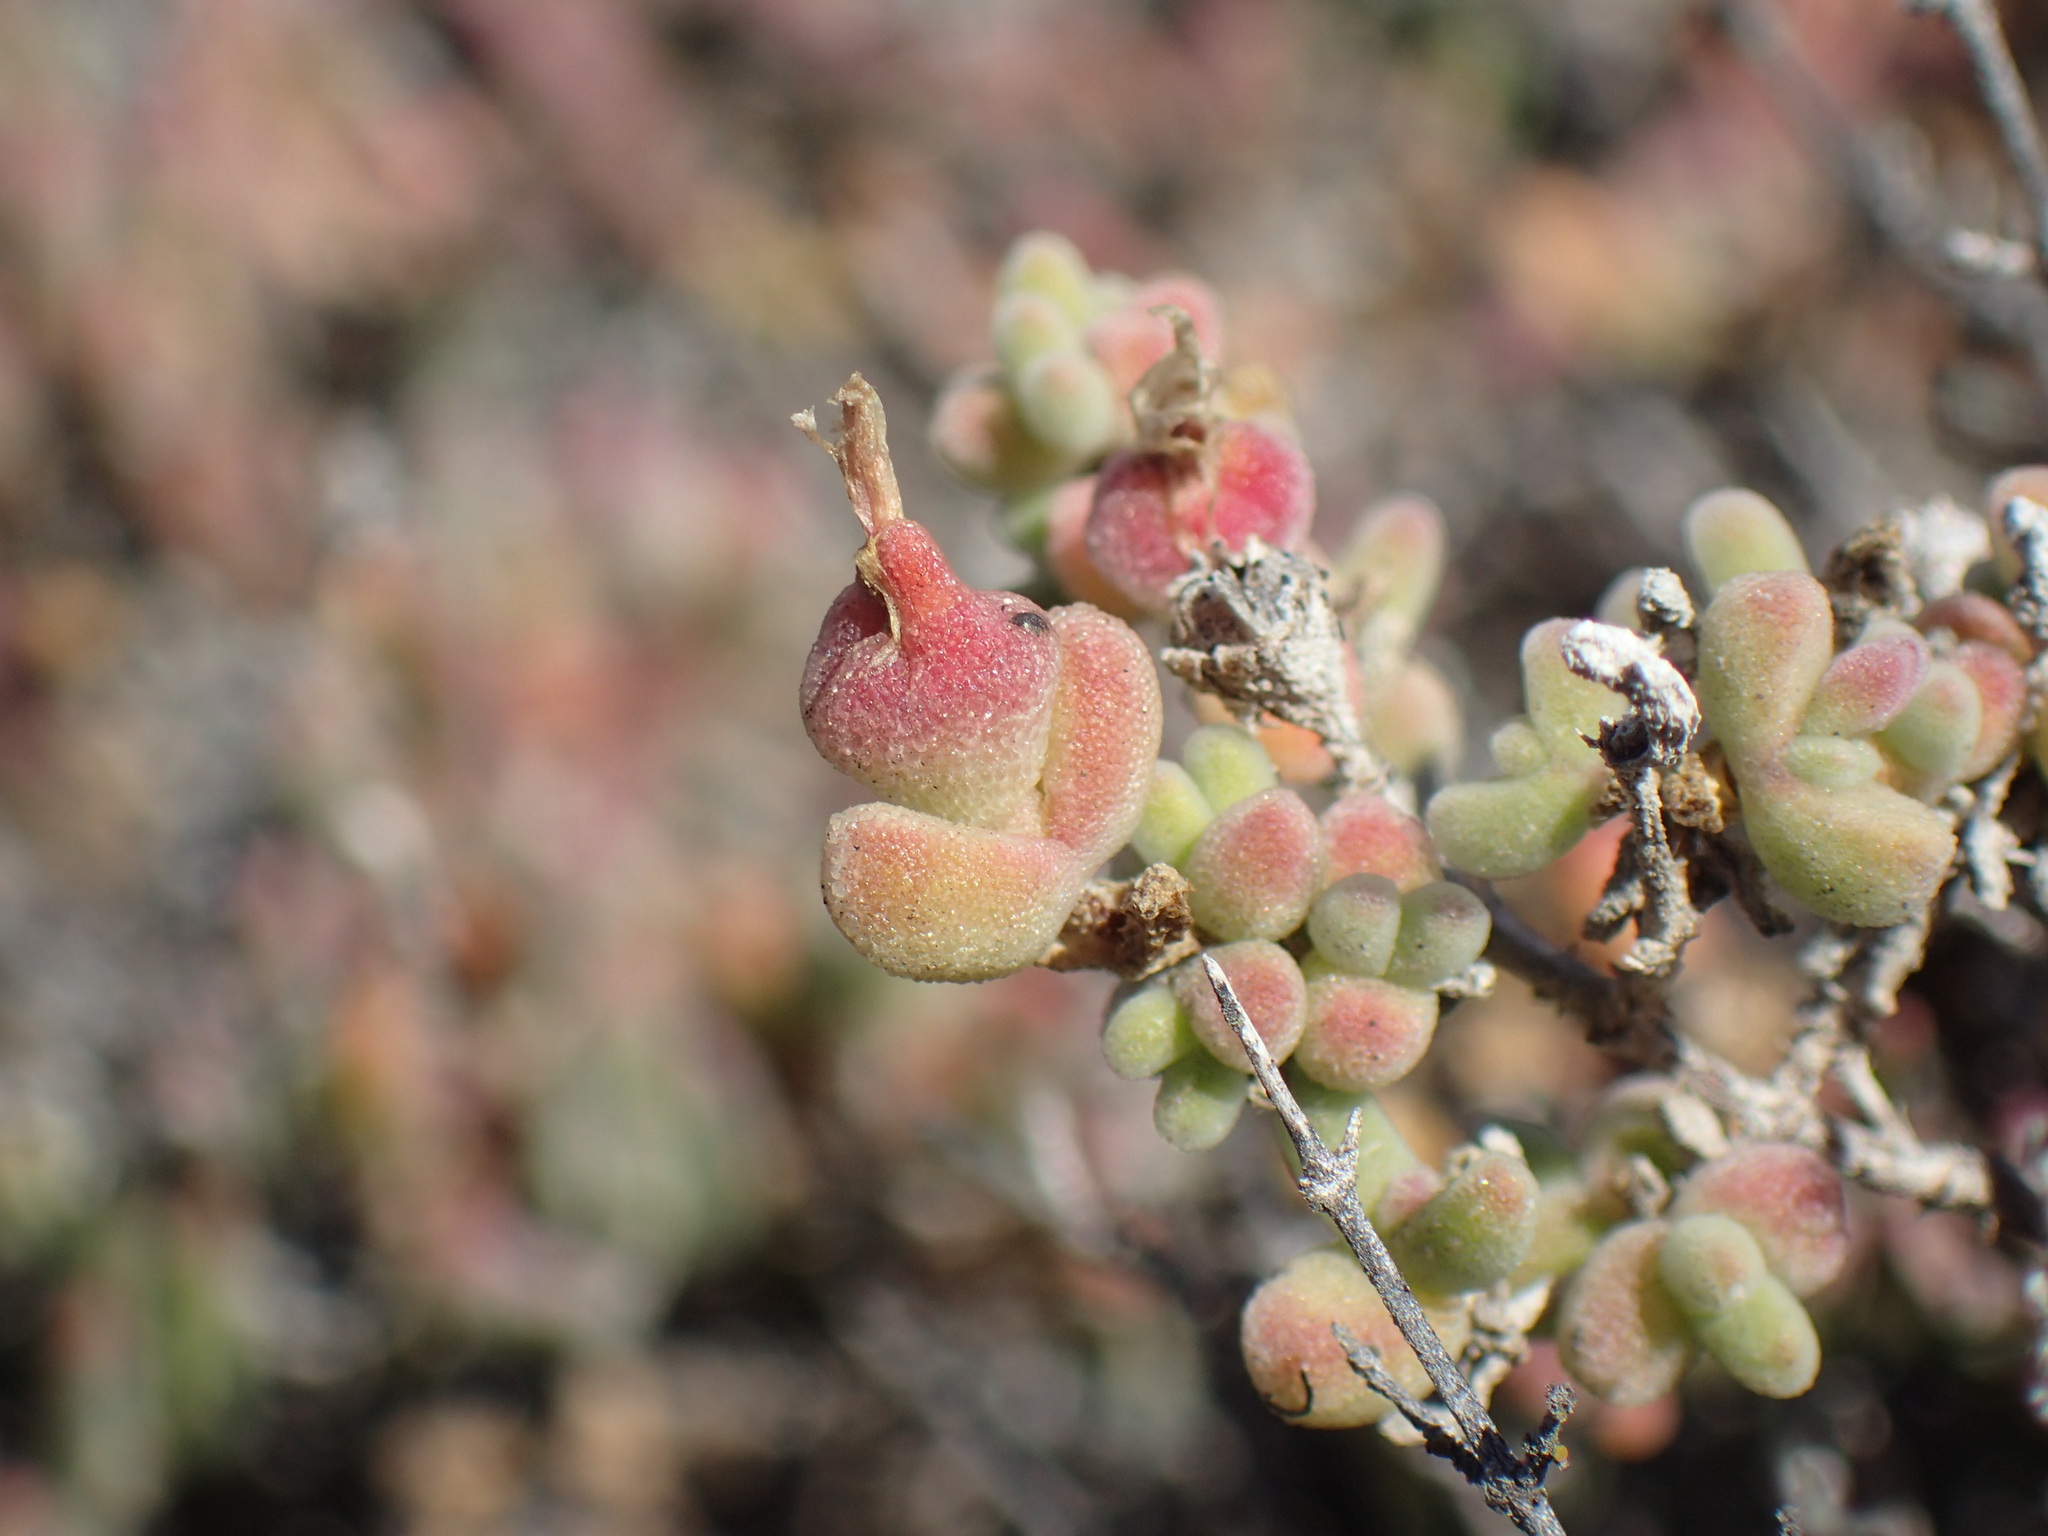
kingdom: Plantae
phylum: Tracheophyta
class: Magnoliopsida
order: Caryophyllales
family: Aizoaceae
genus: Drosanthemum
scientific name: Drosanthemum salicola
